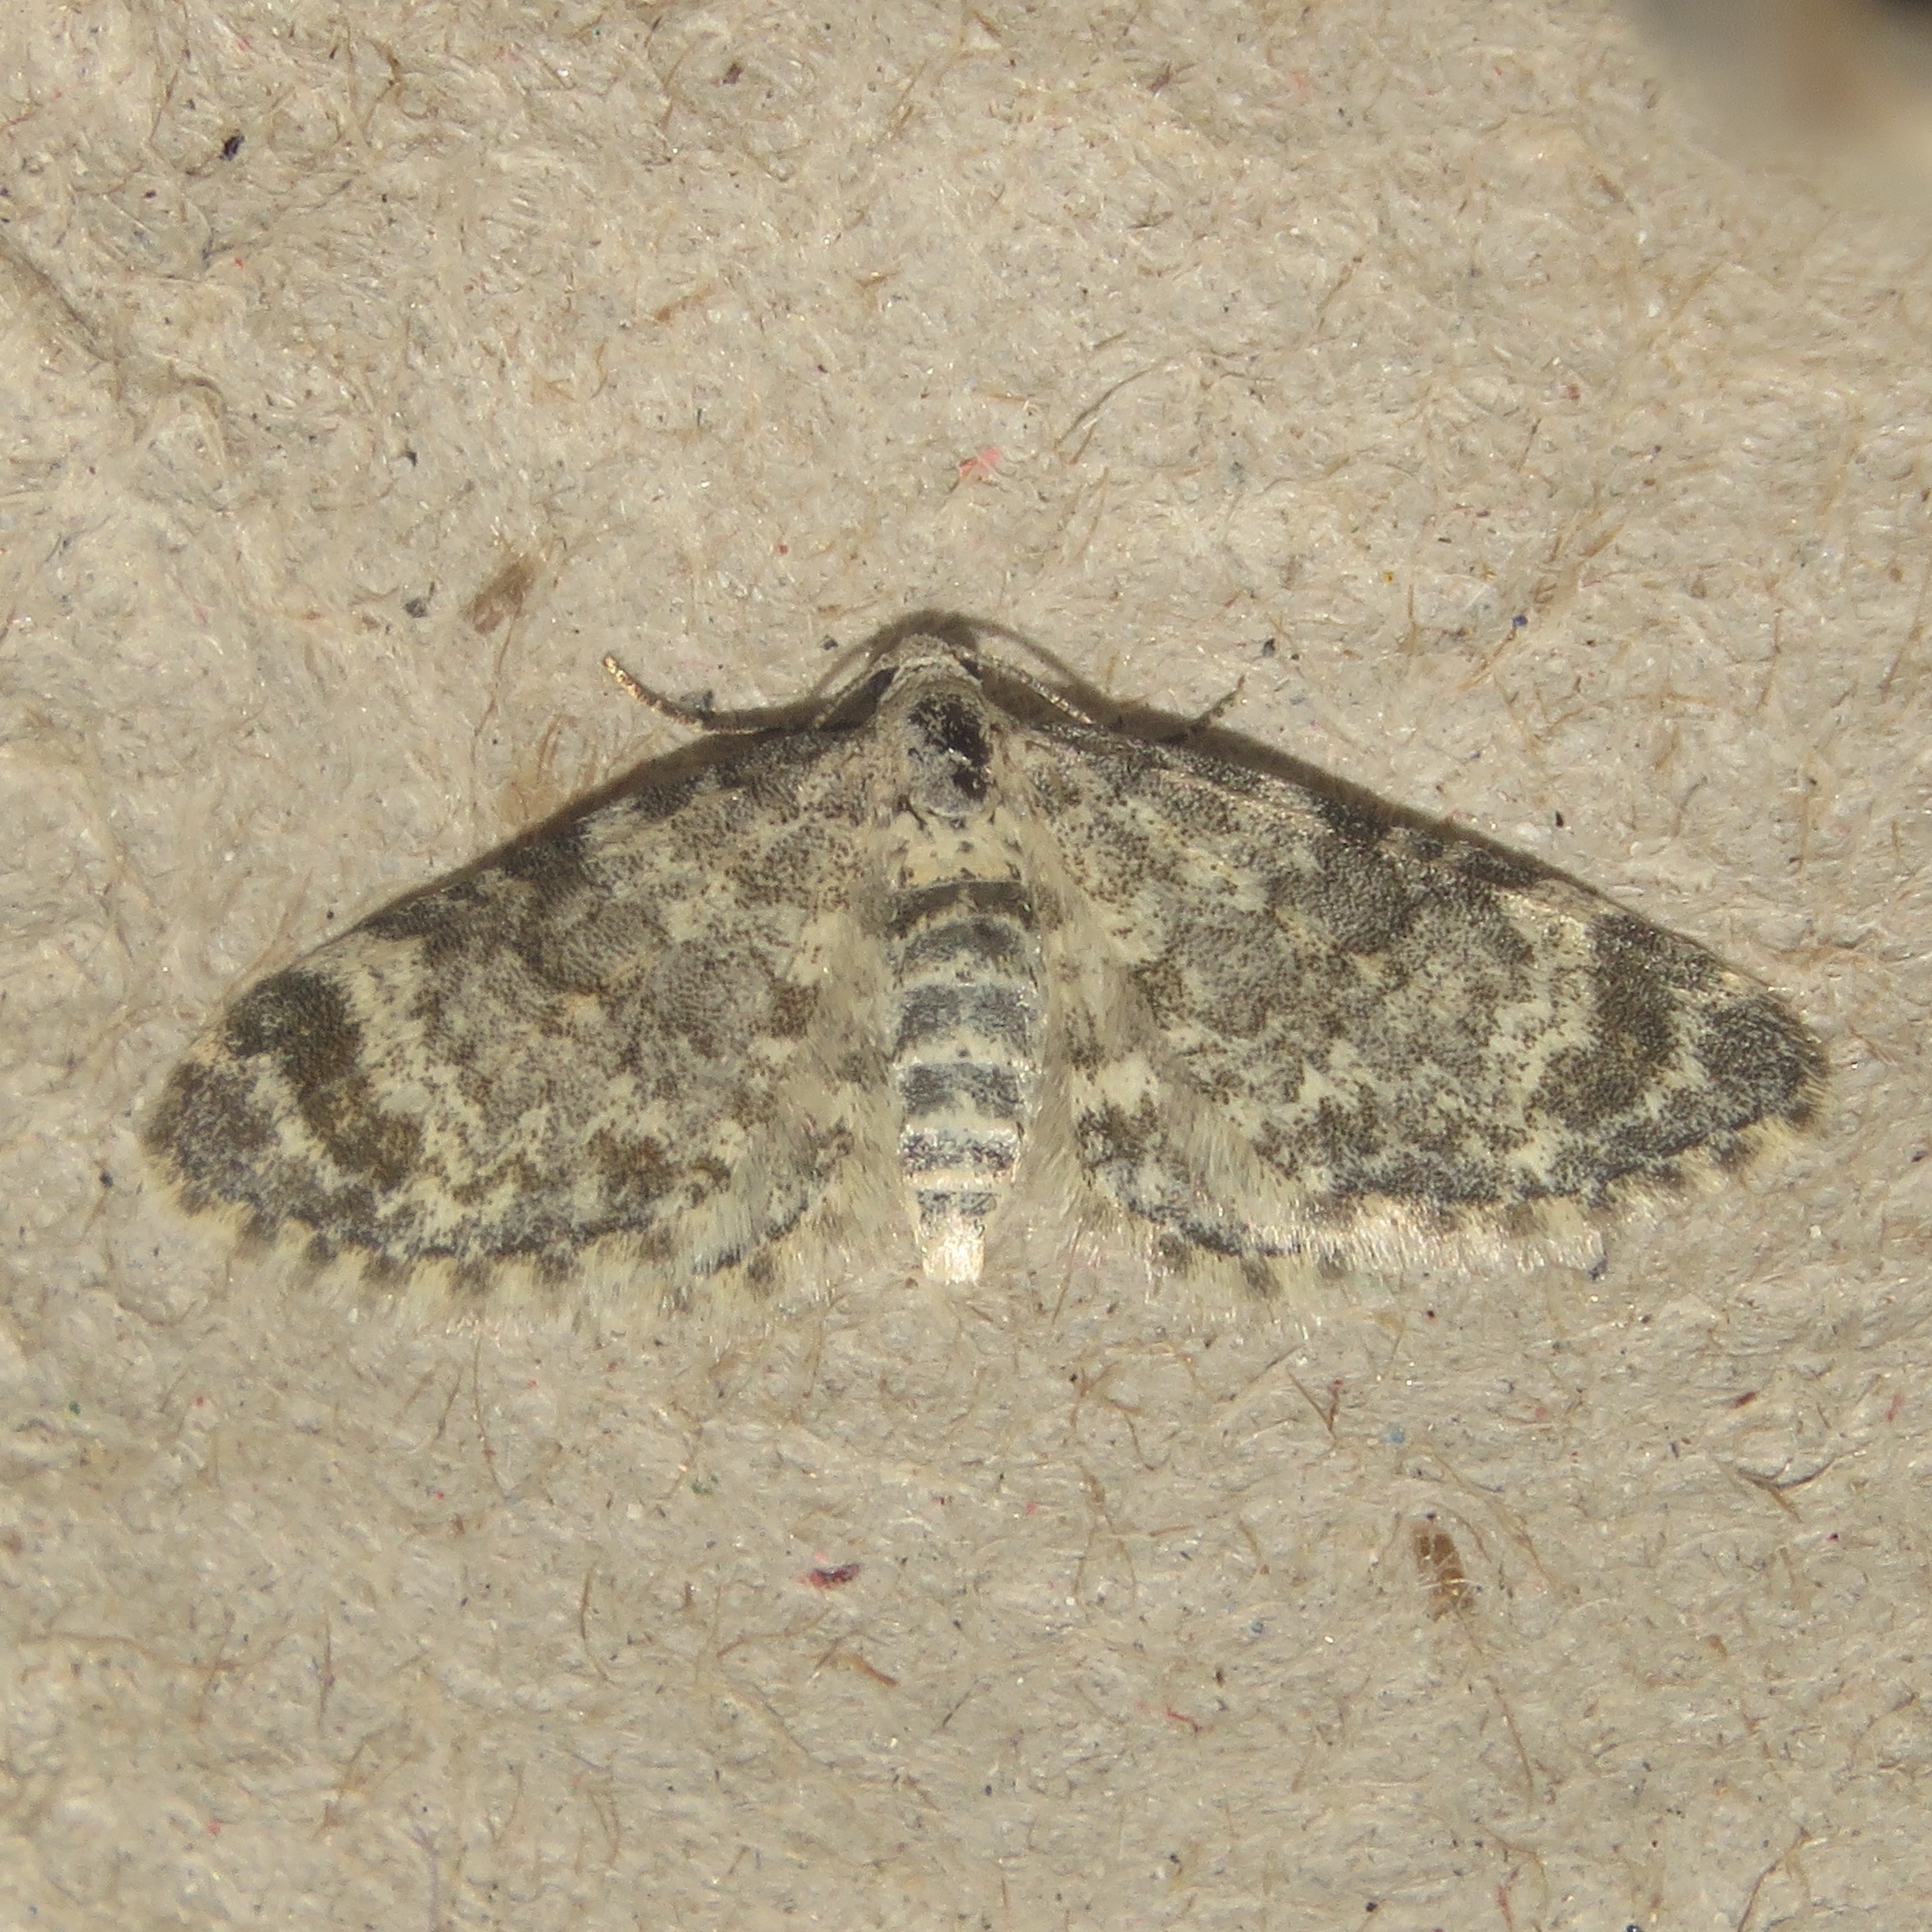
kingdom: Animalia
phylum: Arthropoda
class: Insecta
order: Lepidoptera
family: Geometridae
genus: Eupithecia
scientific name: Eupithecia cimicifugata
